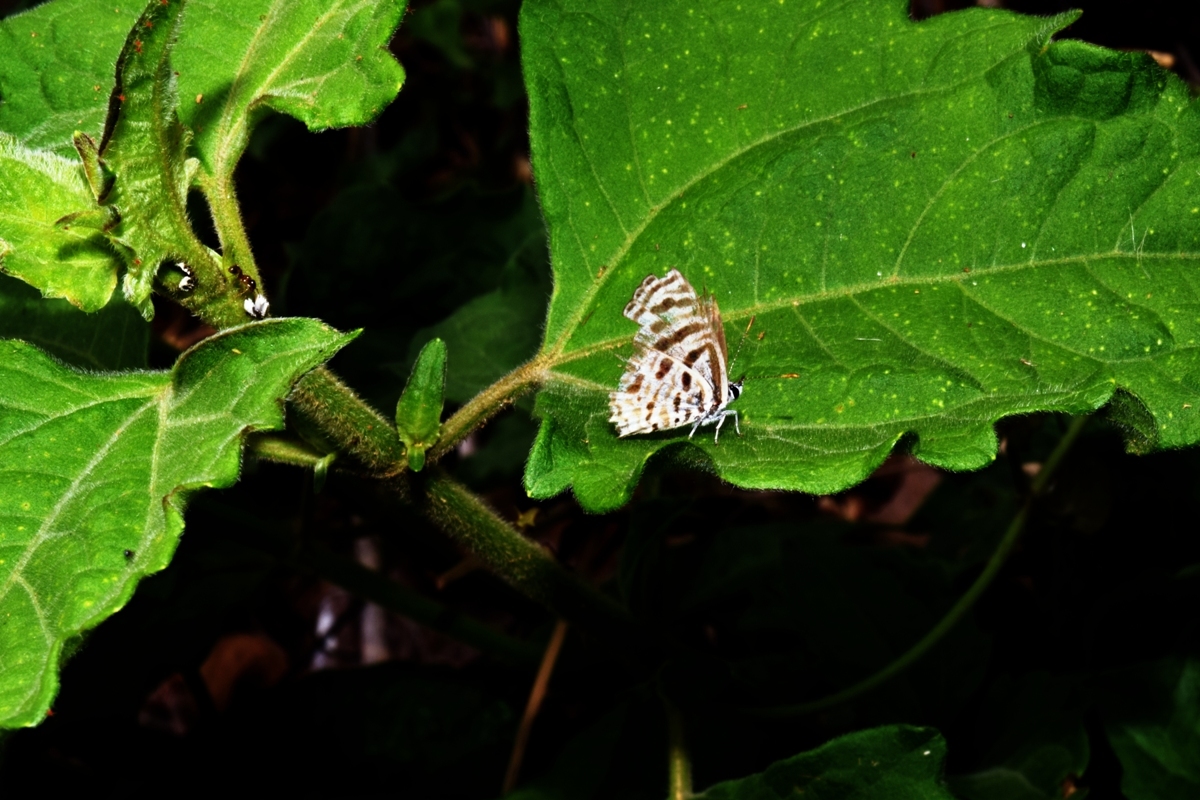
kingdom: Animalia
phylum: Arthropoda
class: Insecta
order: Lepidoptera
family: Lycaenidae
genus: Leptotes
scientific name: Leptotes plinius
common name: Zebra blue
